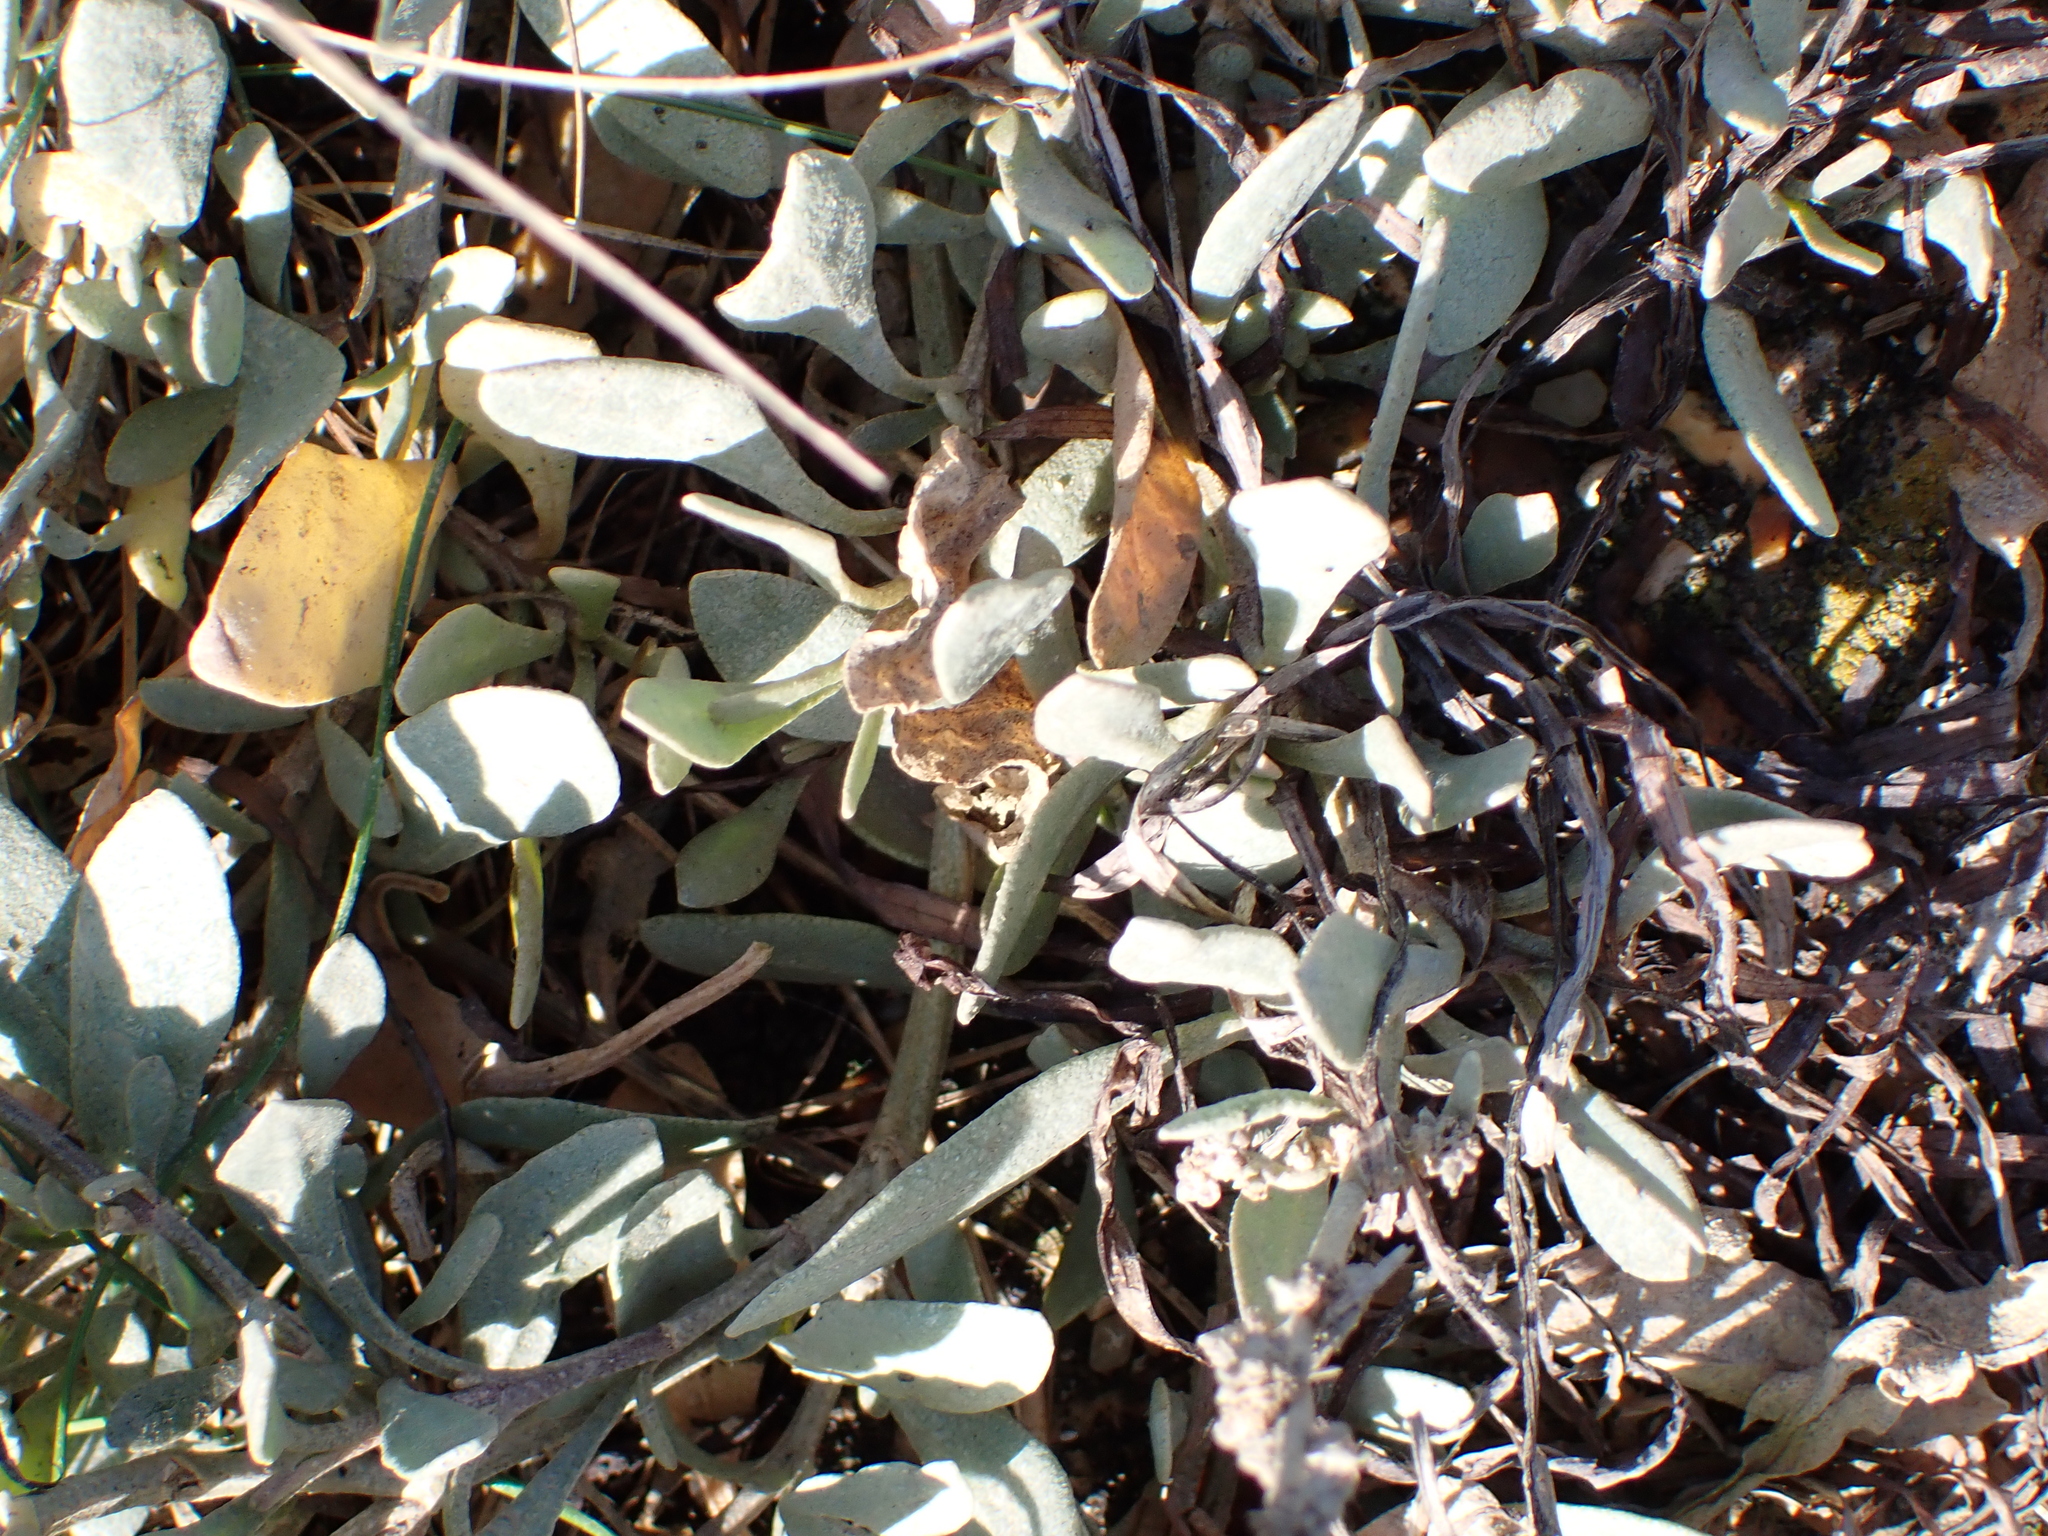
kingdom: Plantae
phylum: Tracheophyta
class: Magnoliopsida
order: Caryophyllales
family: Amaranthaceae
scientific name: Amaranthaceae
